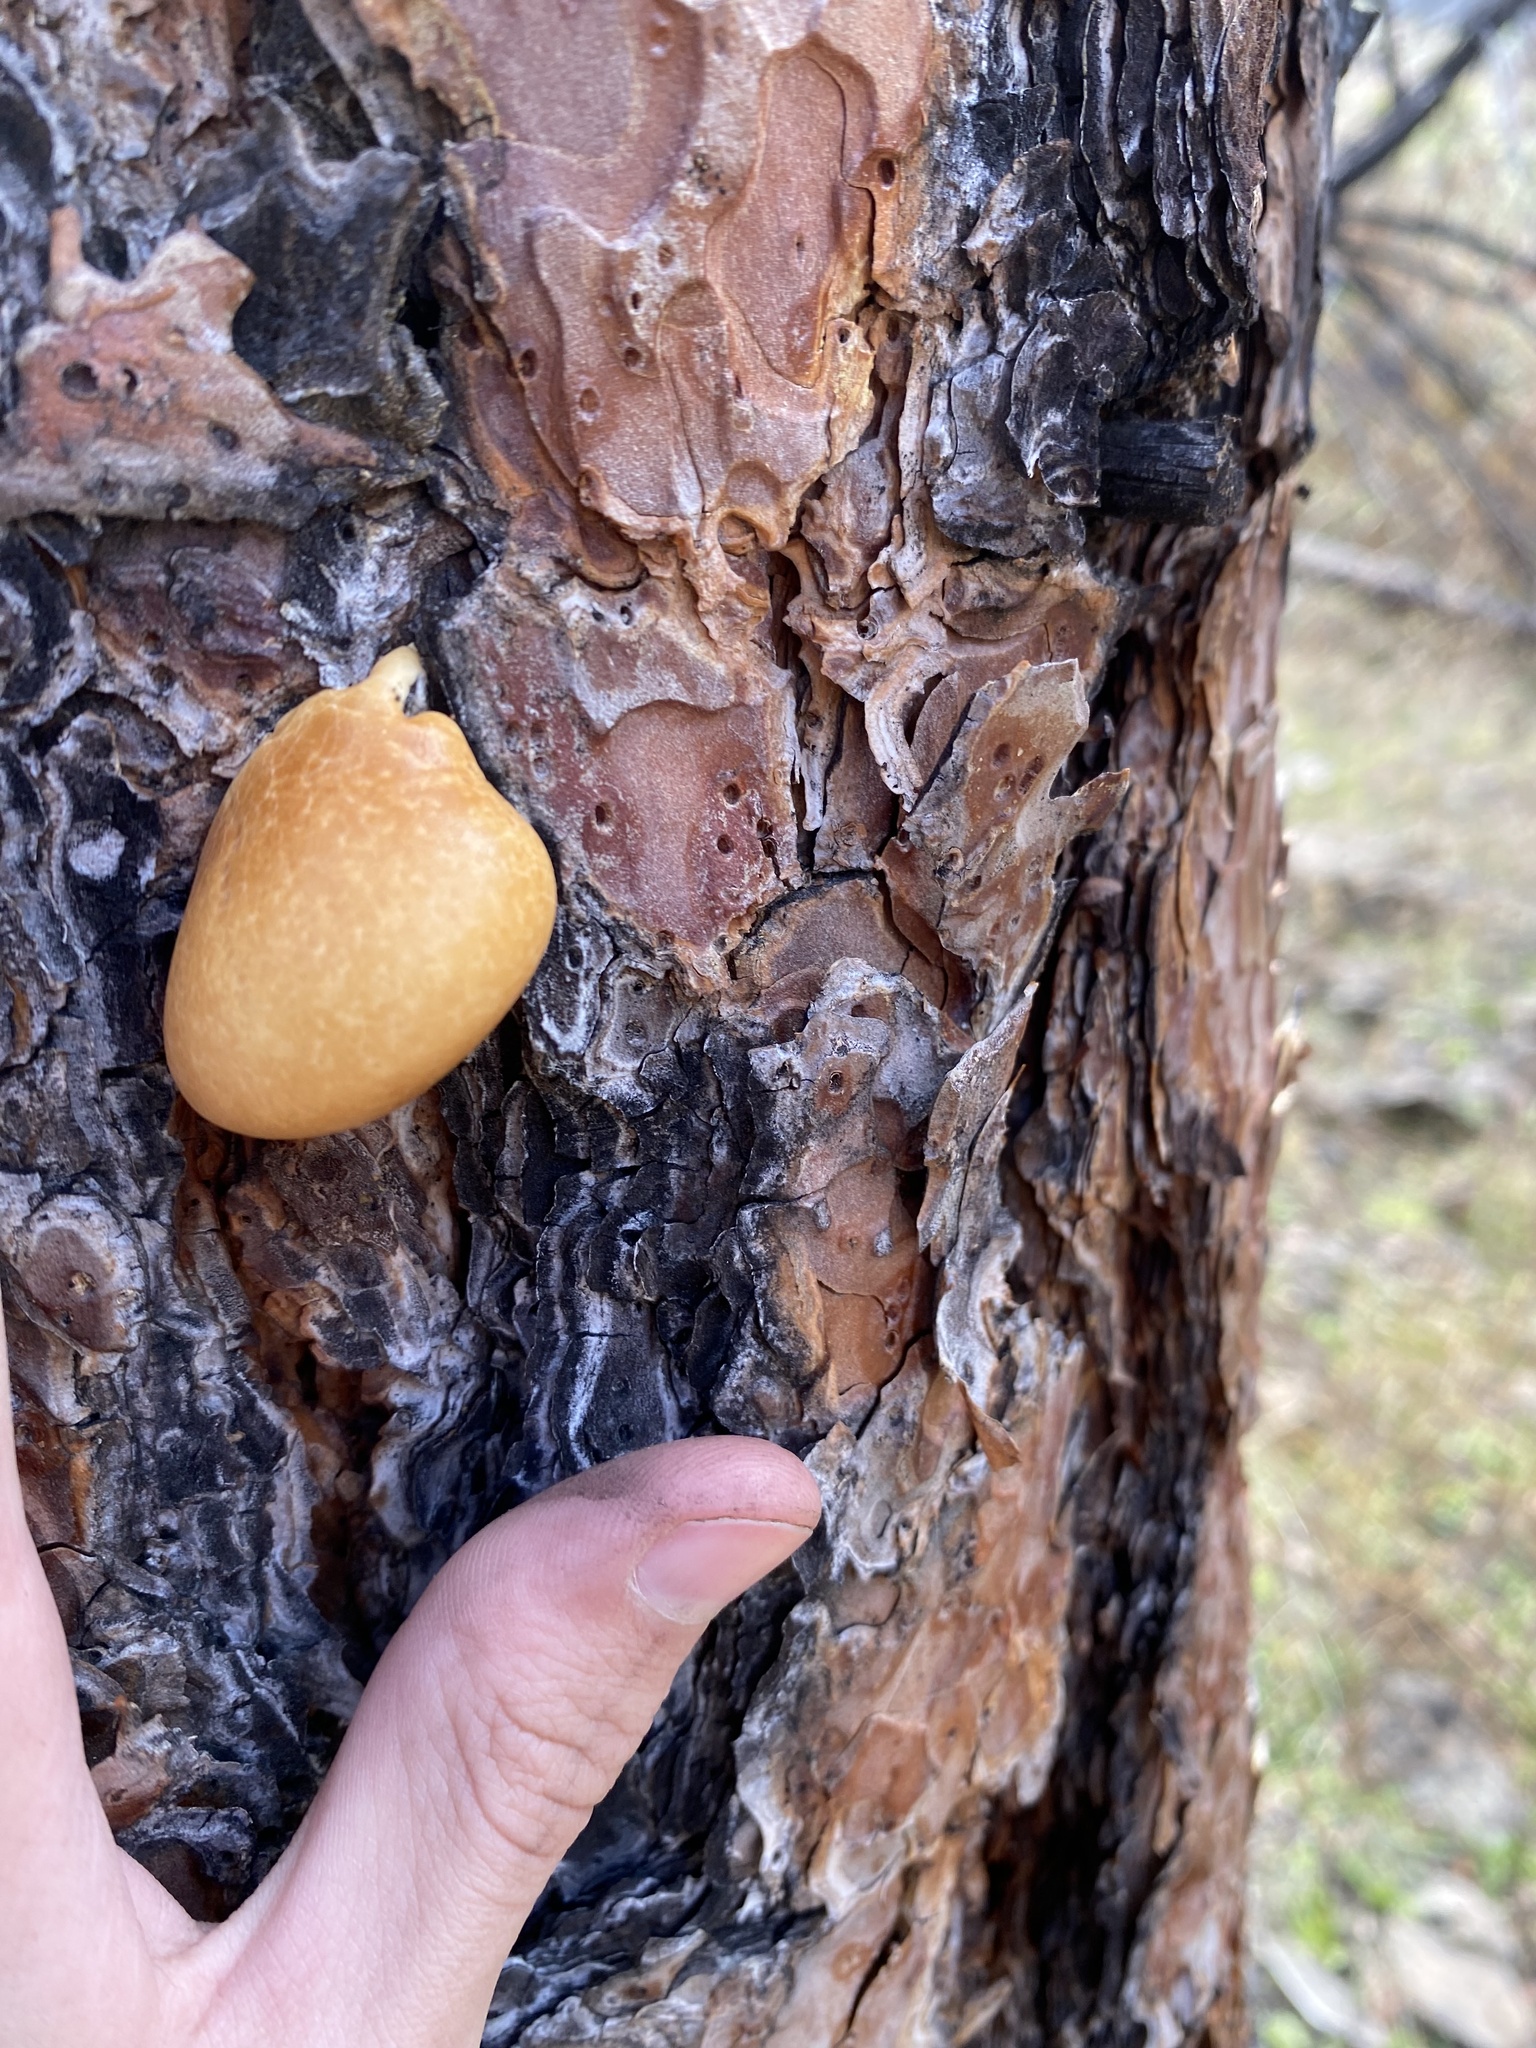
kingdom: Fungi
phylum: Basidiomycota
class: Agaricomycetes
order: Polyporales
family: Polyporaceae
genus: Cryptoporus
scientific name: Cryptoporus volvatus
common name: Veiled polypore
